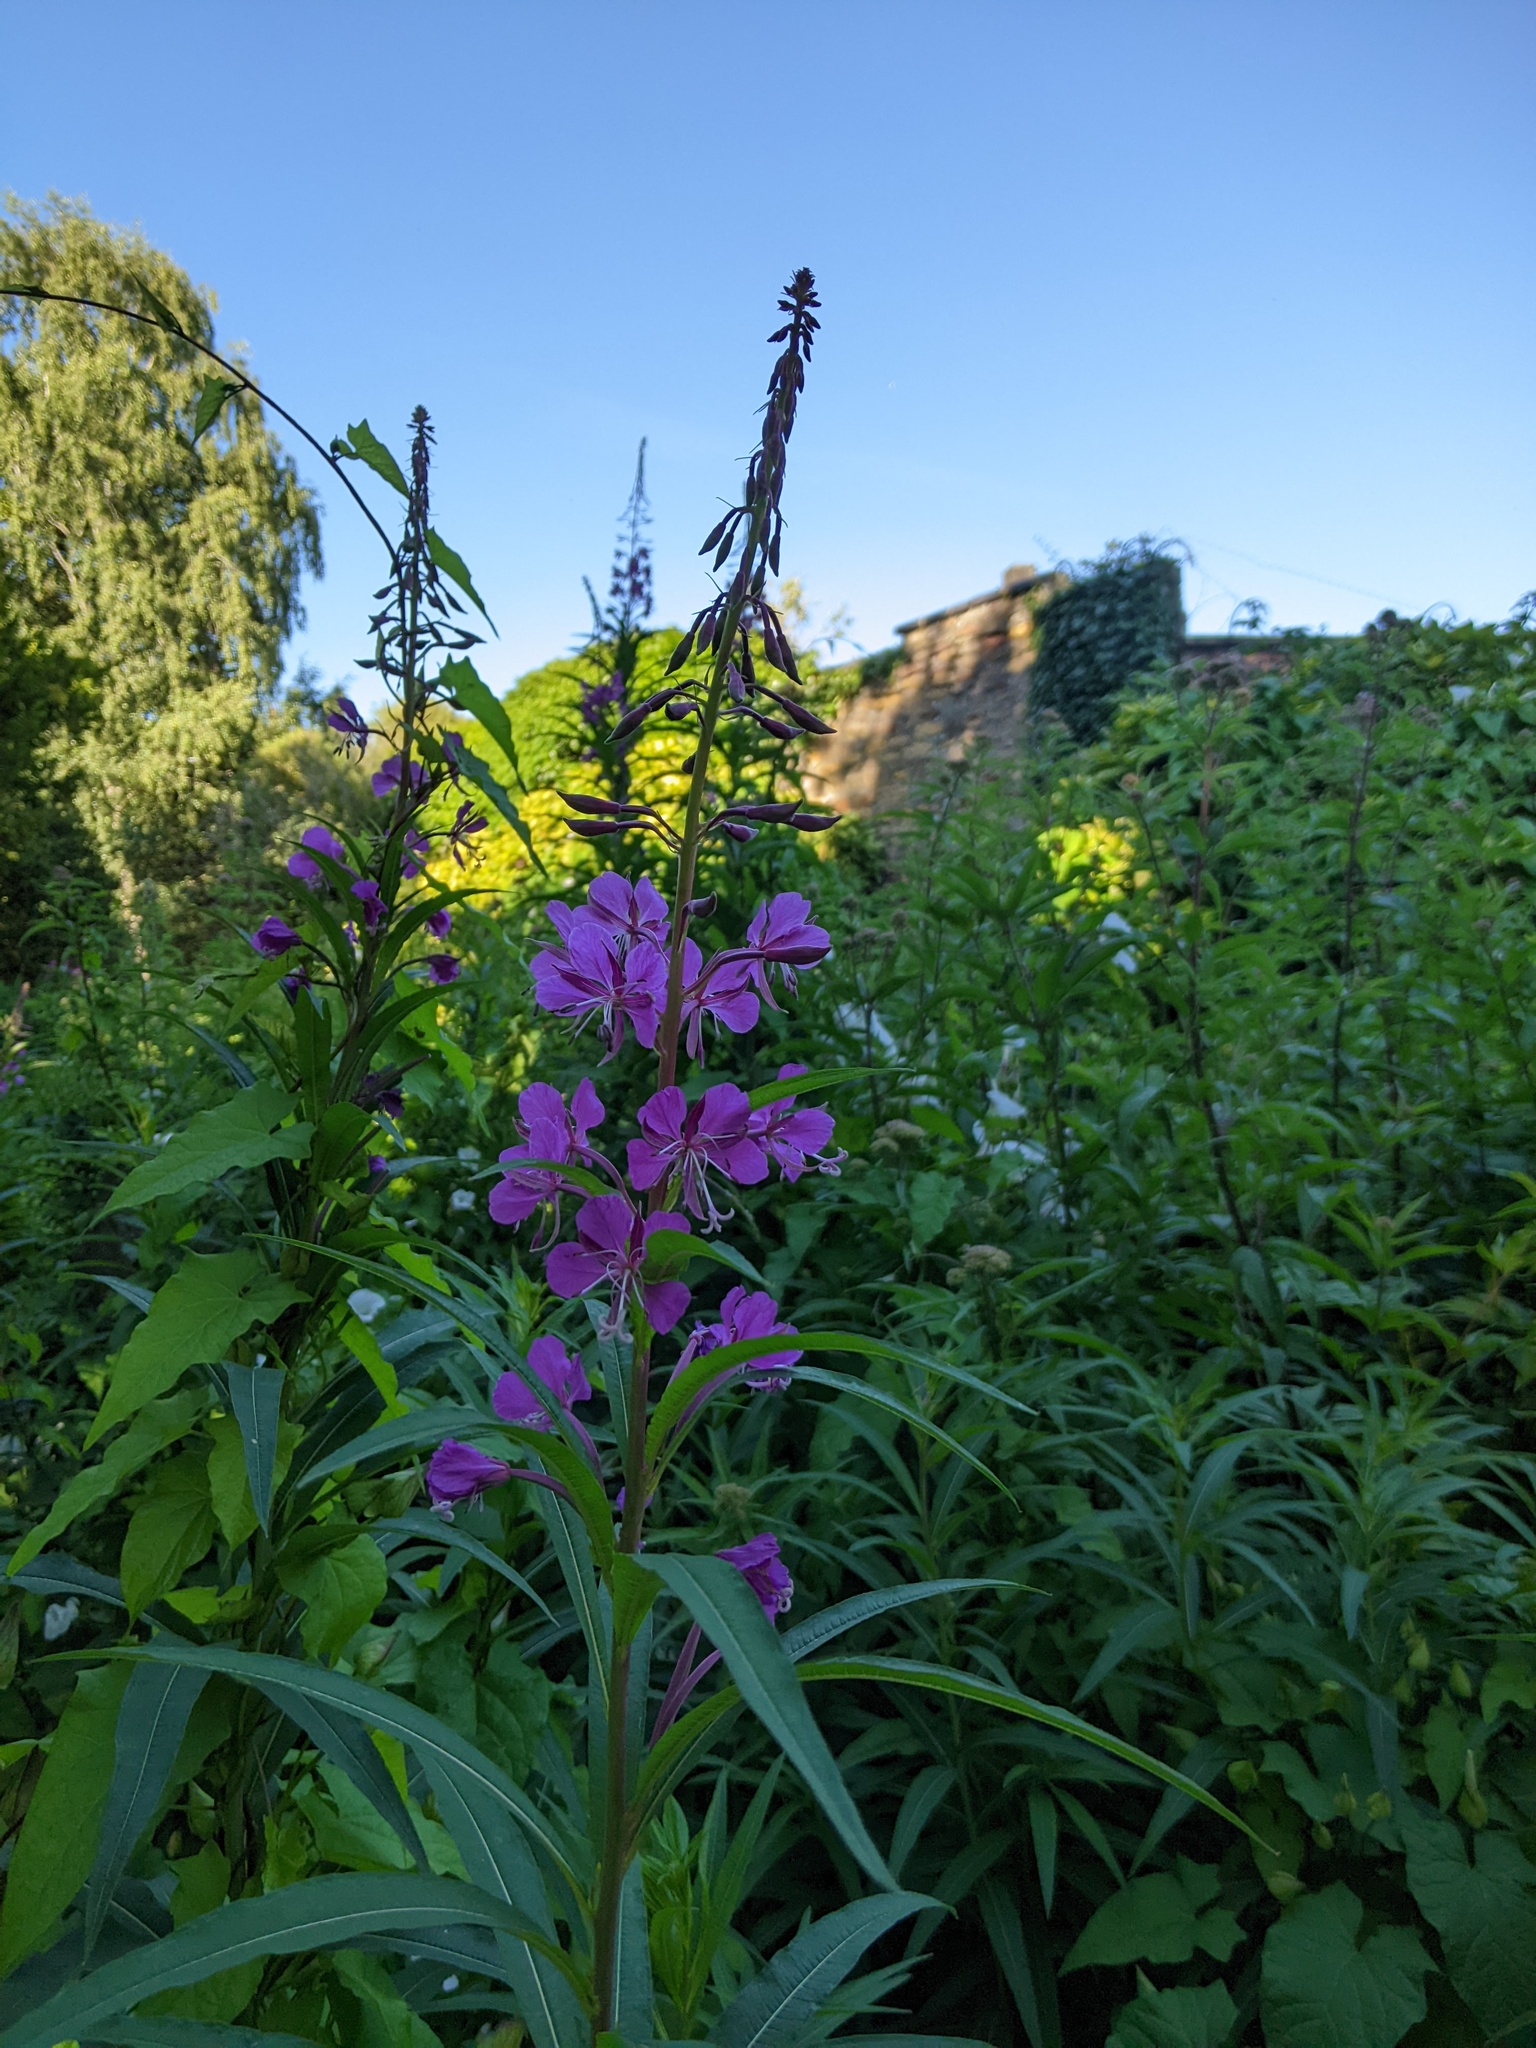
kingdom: Plantae
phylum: Tracheophyta
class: Magnoliopsida
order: Myrtales
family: Onagraceae
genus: Chamaenerion
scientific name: Chamaenerion angustifolium
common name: Fireweed
